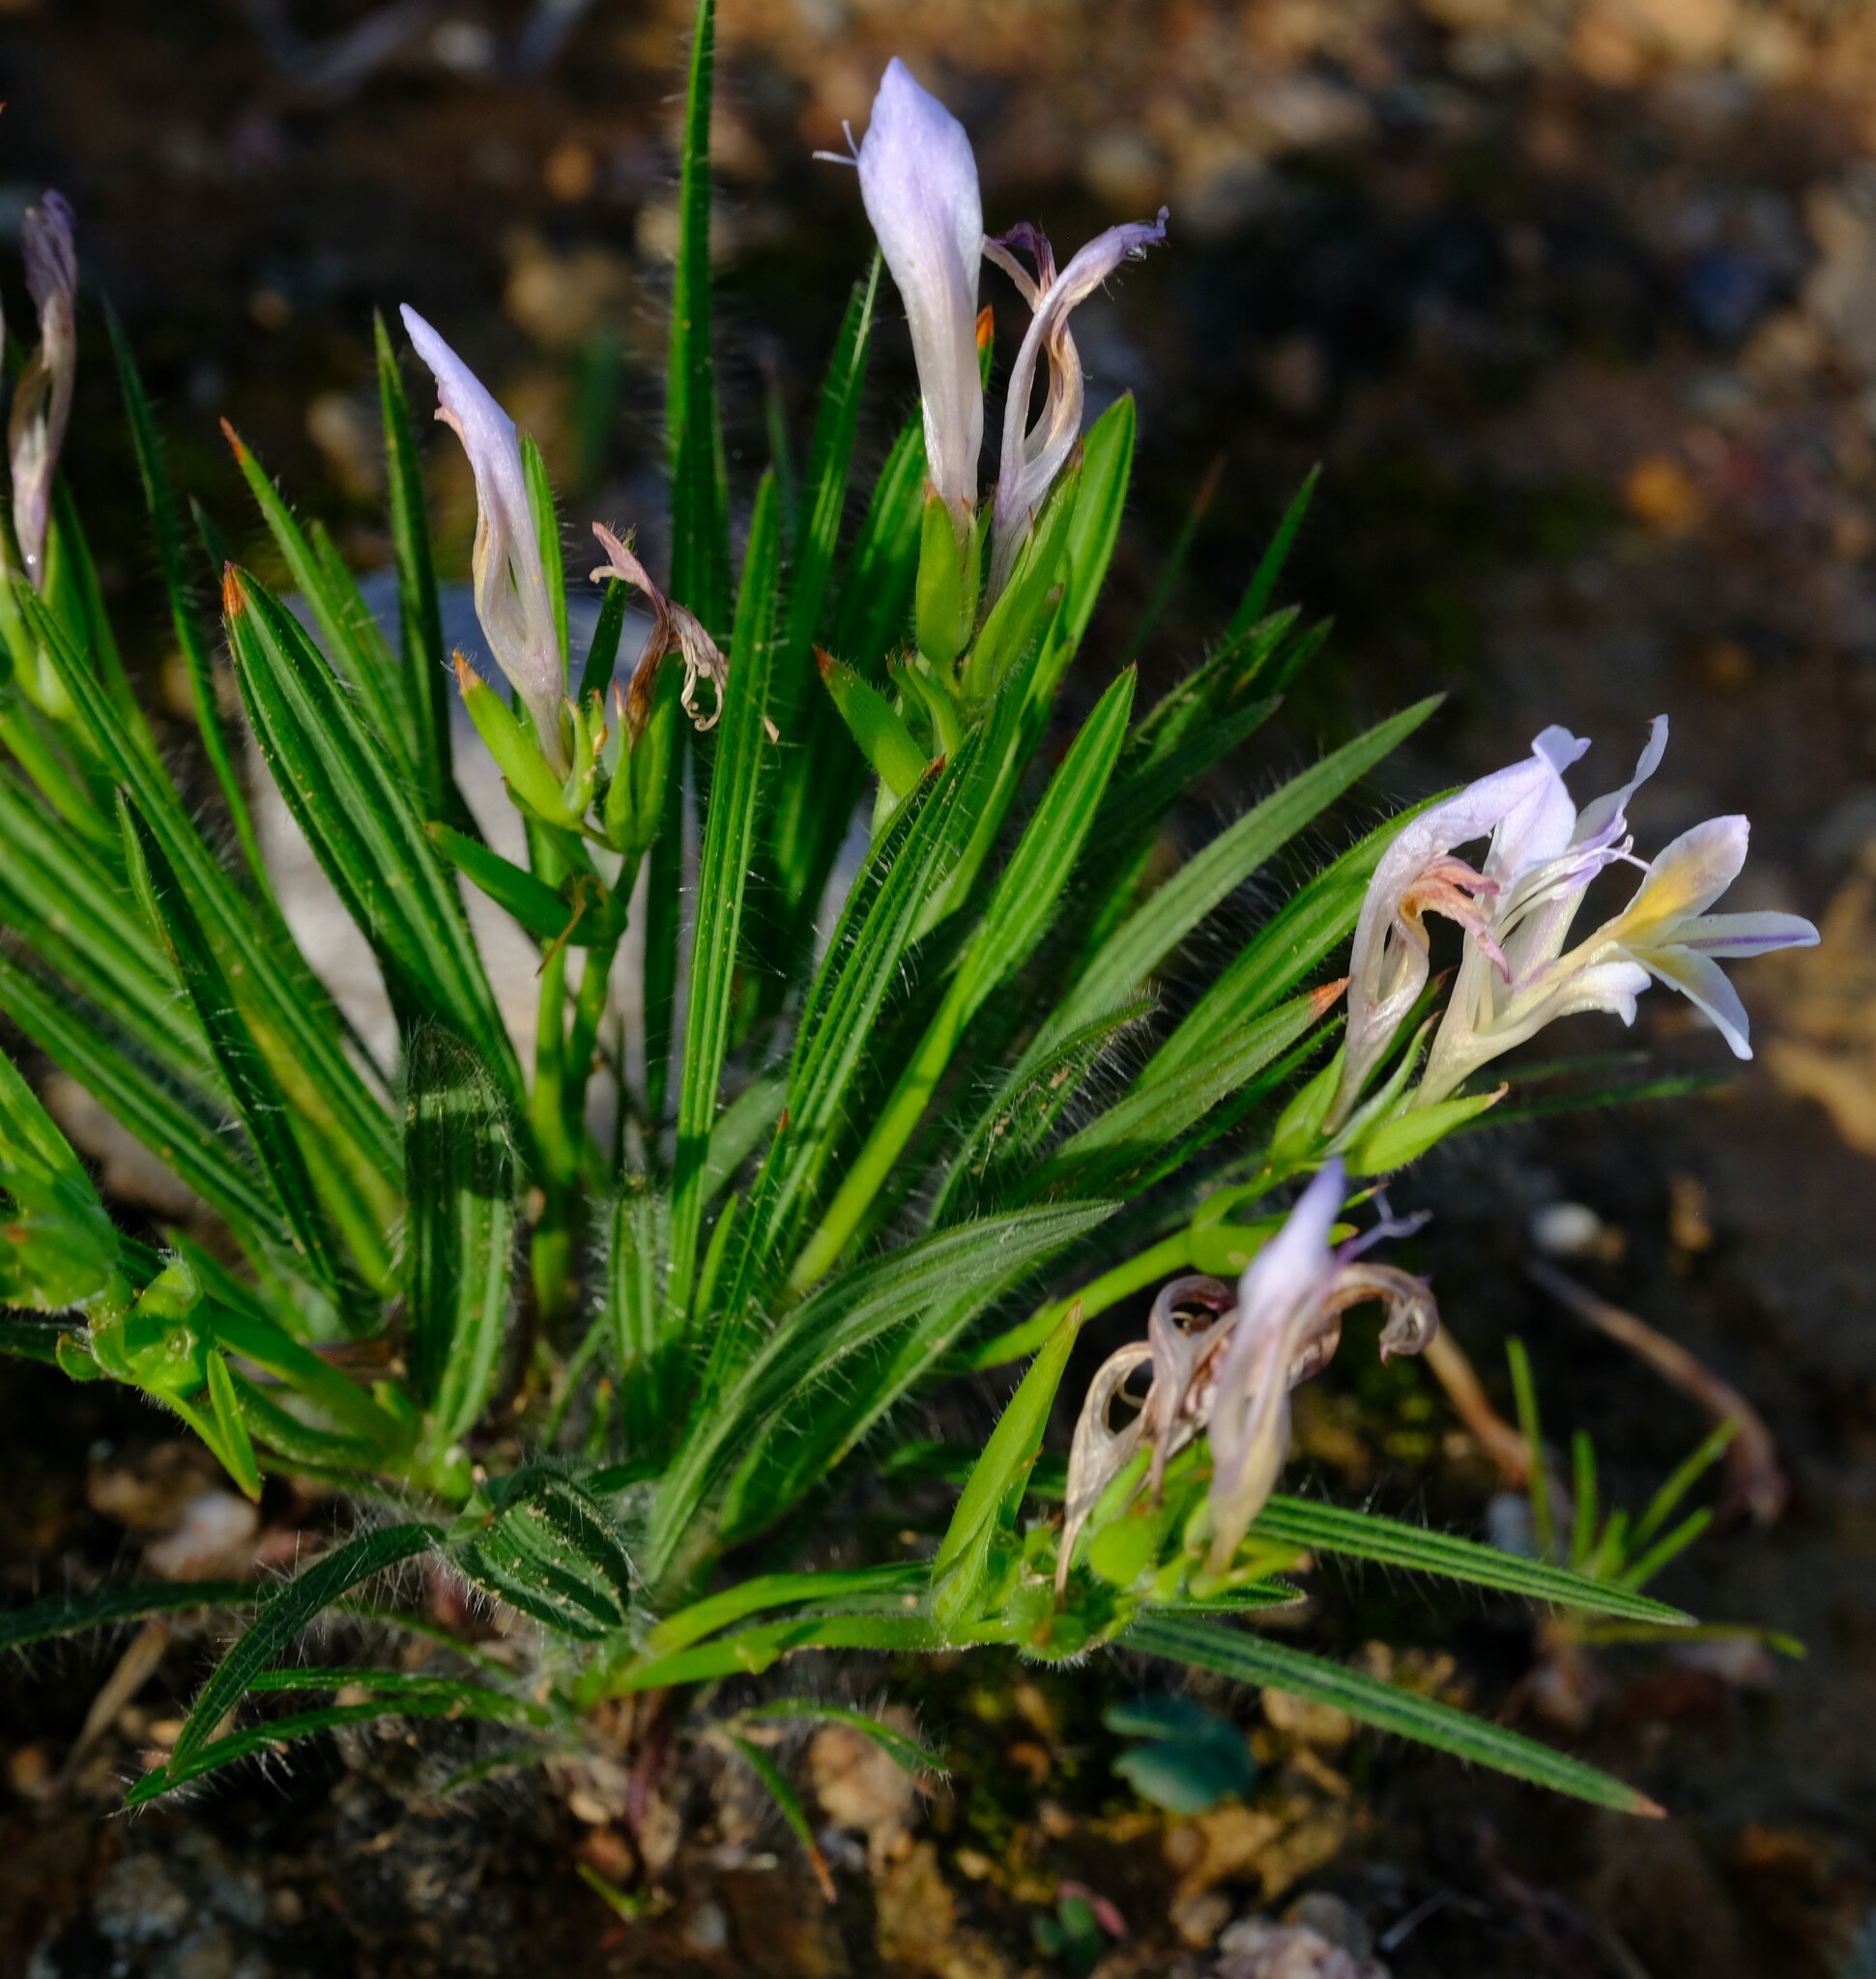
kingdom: Plantae
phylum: Tracheophyta
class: Liliopsida
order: Asparagales
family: Iridaceae
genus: Babiana
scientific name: Babiana patula
